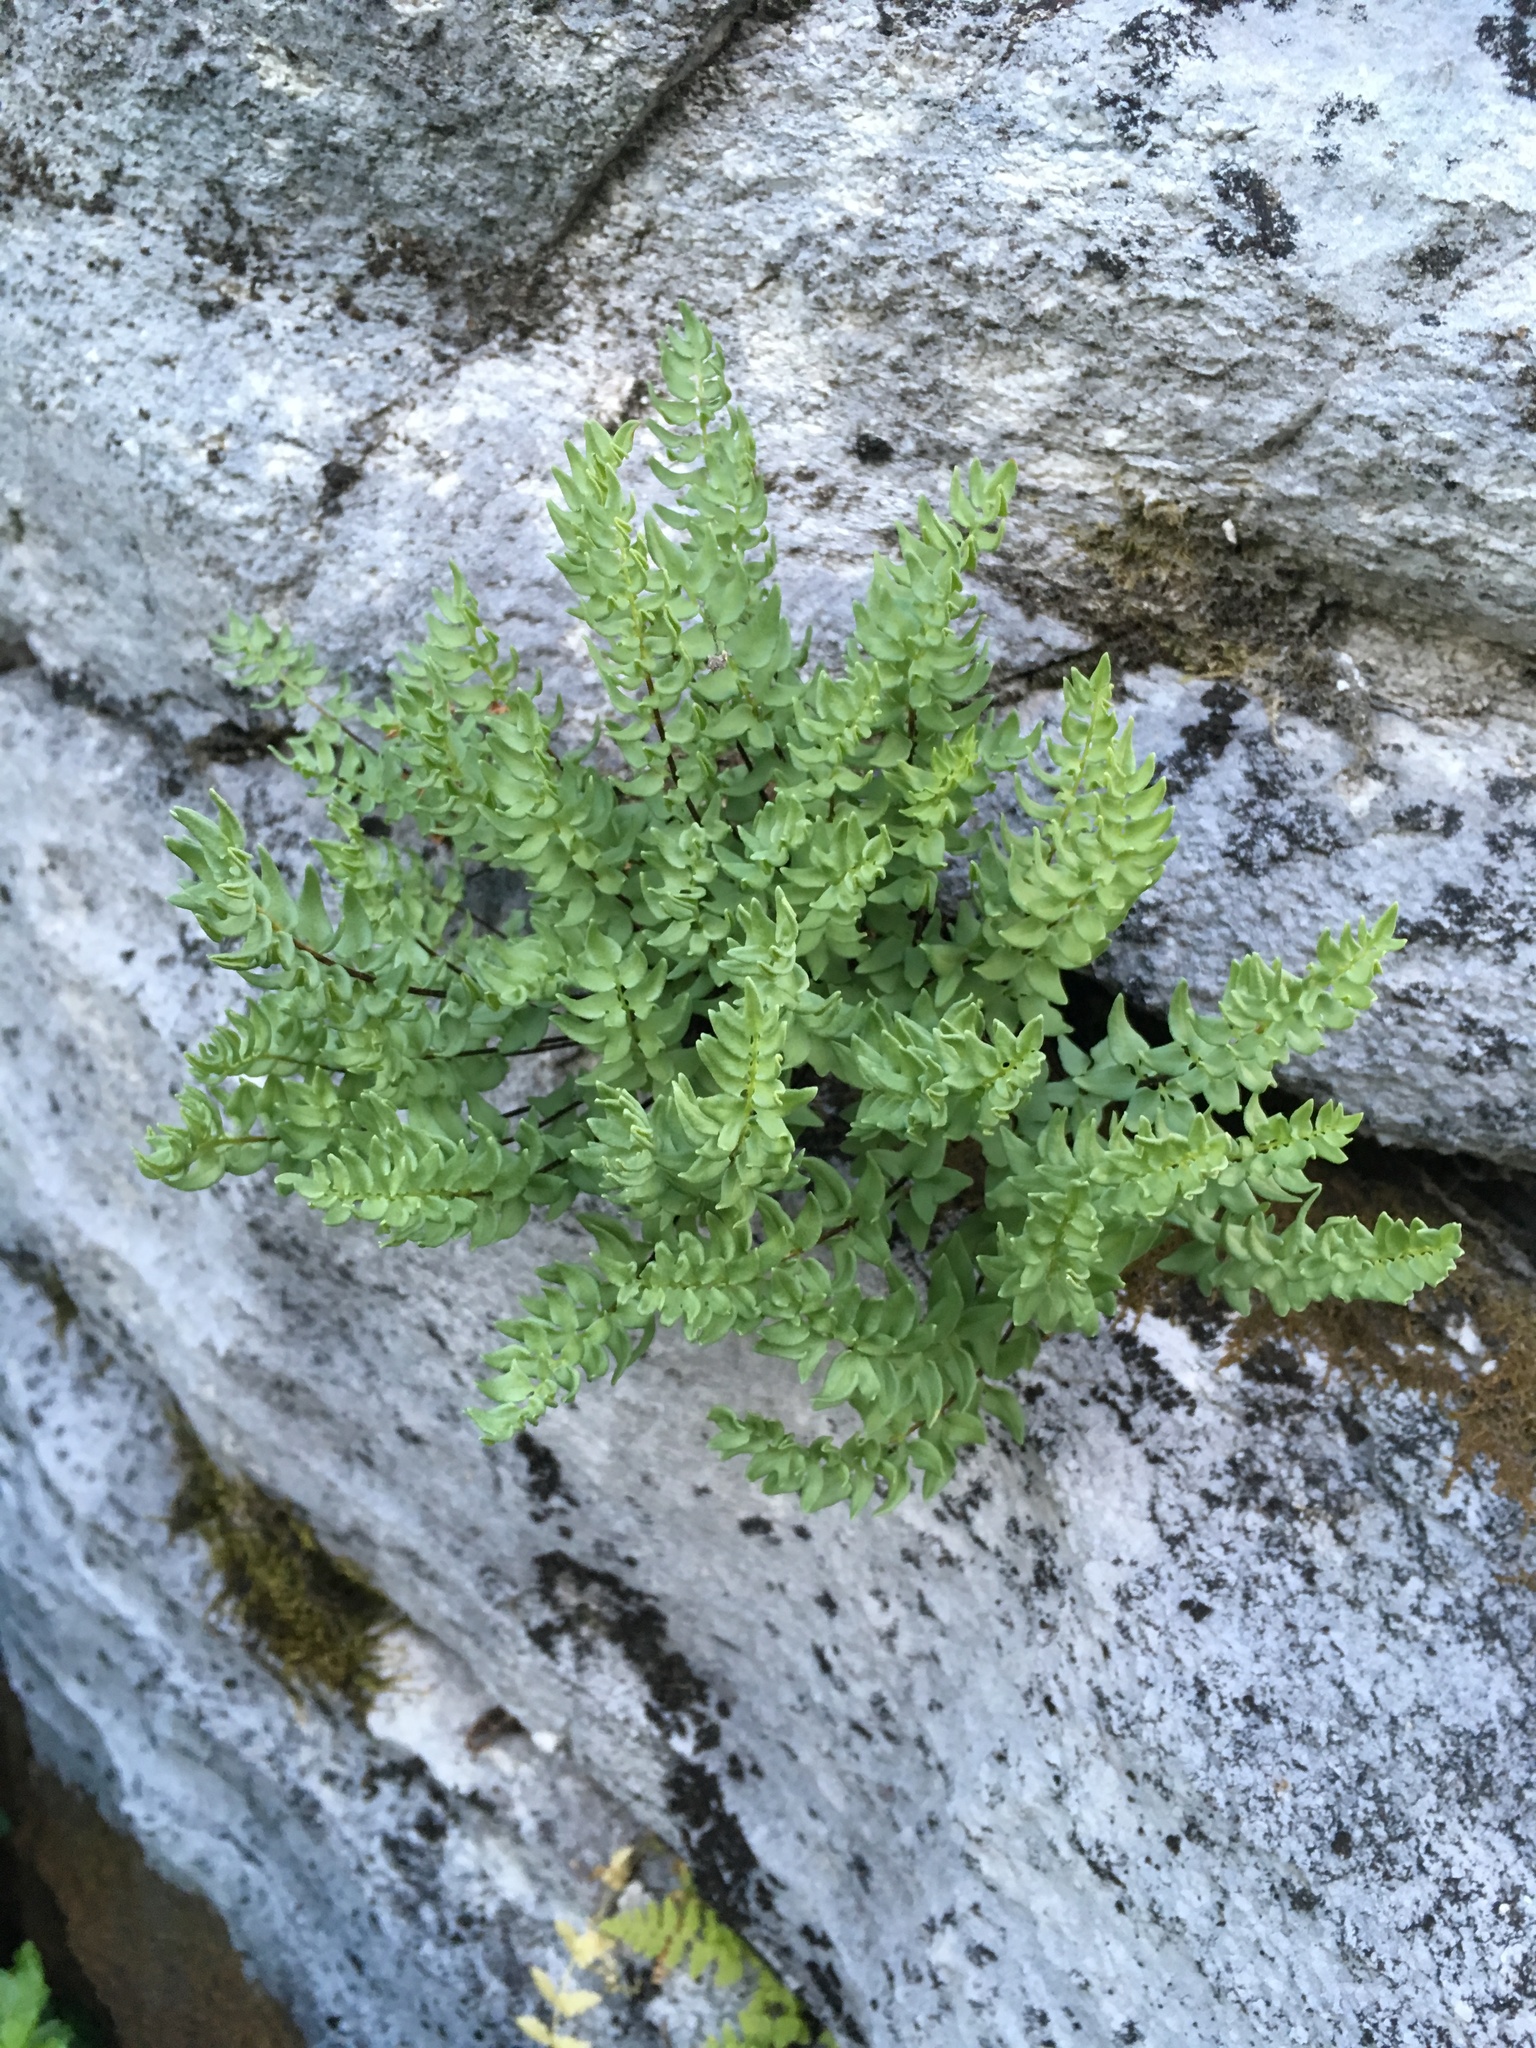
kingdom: Plantae
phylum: Tracheophyta
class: Polypodiopsida
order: Polypodiales
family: Pteridaceae
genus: Pellaea
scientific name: Pellaea breweri
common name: Brewer's cliffbrake
